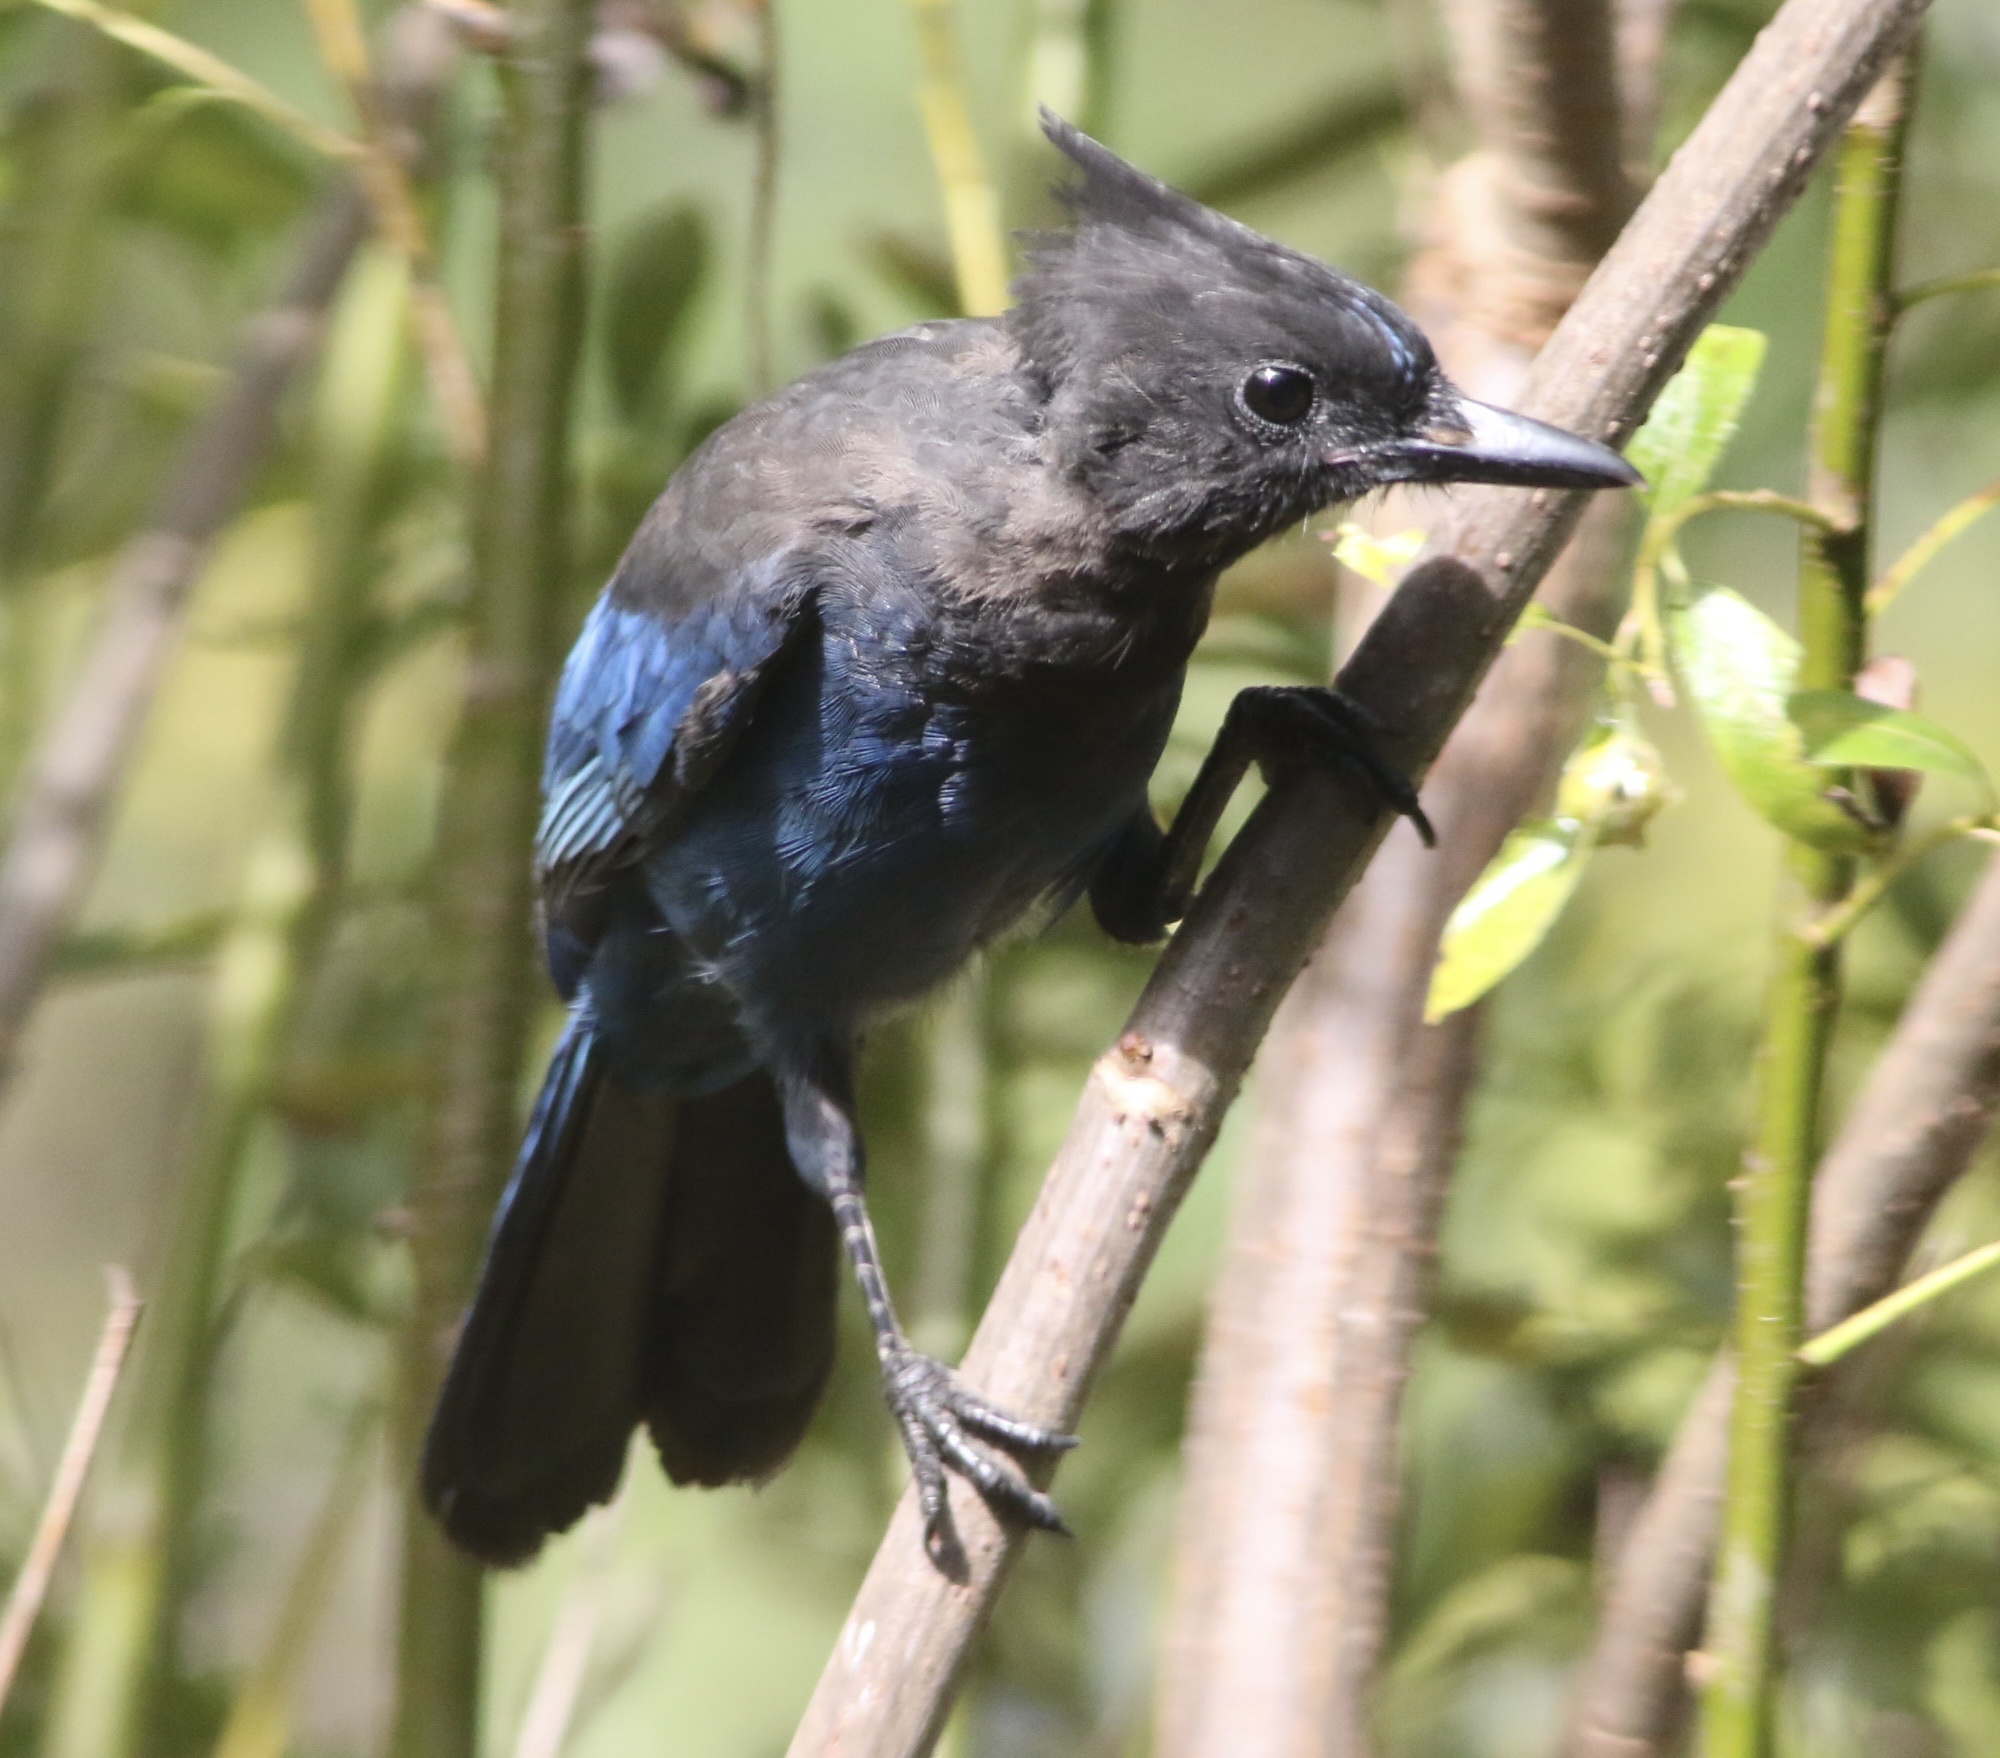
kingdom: Animalia
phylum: Chordata
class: Aves
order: Passeriformes
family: Corvidae
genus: Cyanocitta
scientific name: Cyanocitta stelleri
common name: Steller's jay
